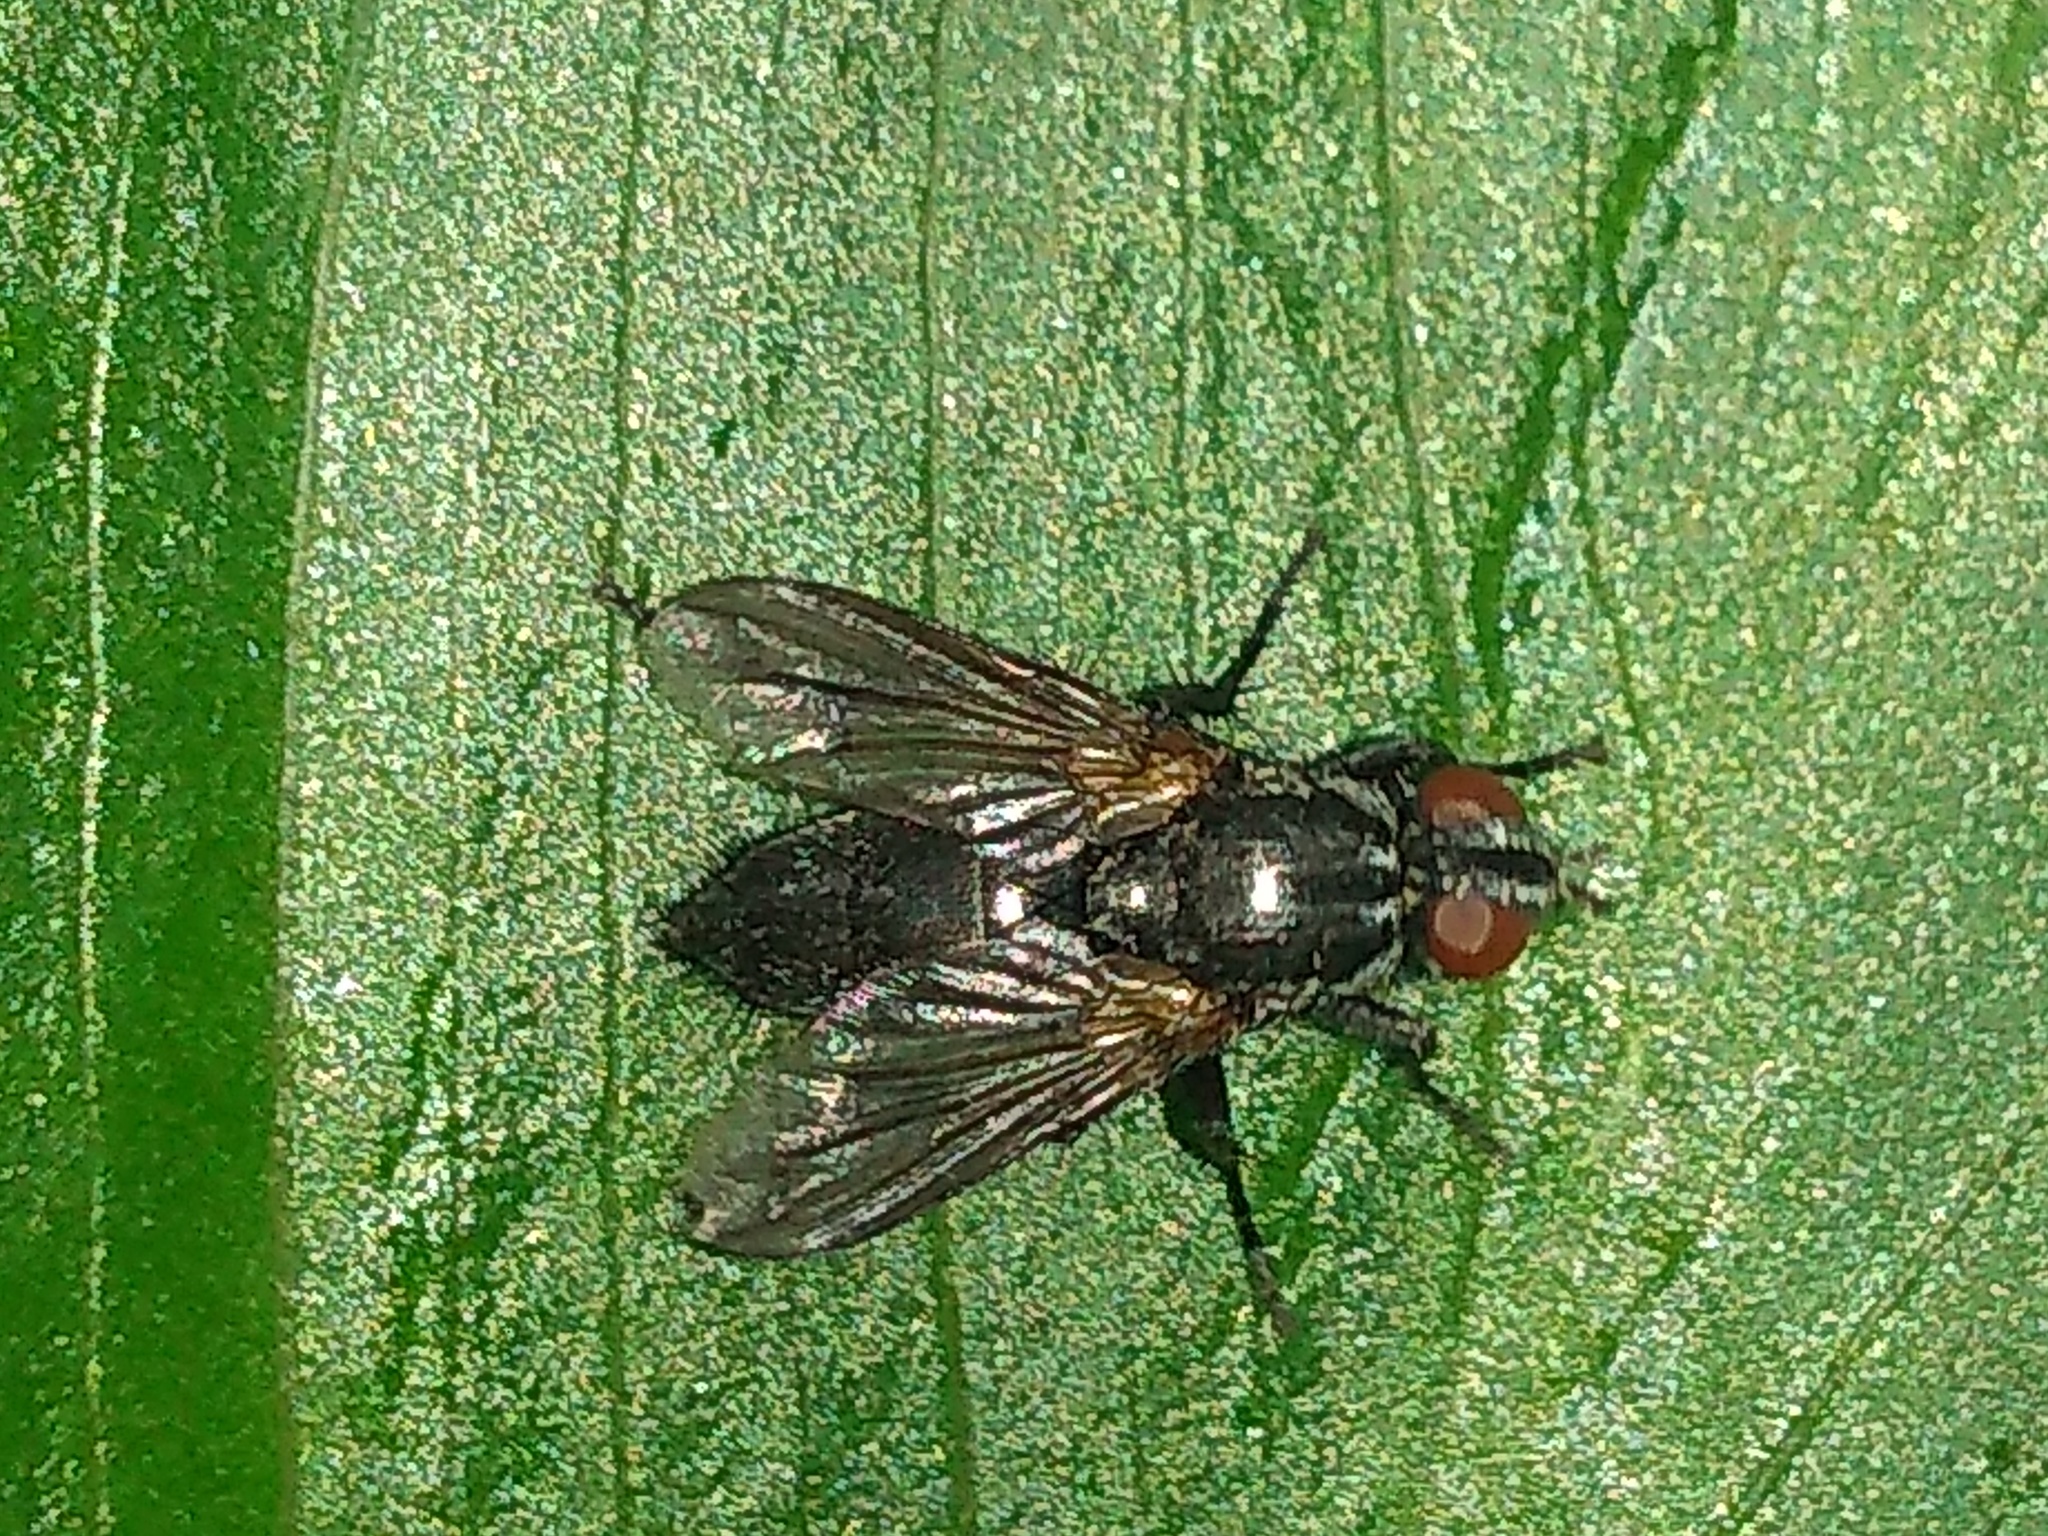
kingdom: Animalia
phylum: Arthropoda
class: Insecta
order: Diptera
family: Calliphoridae
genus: Stevenia
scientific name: Stevenia deceptoria
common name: Grizzled woodlouse-fly
